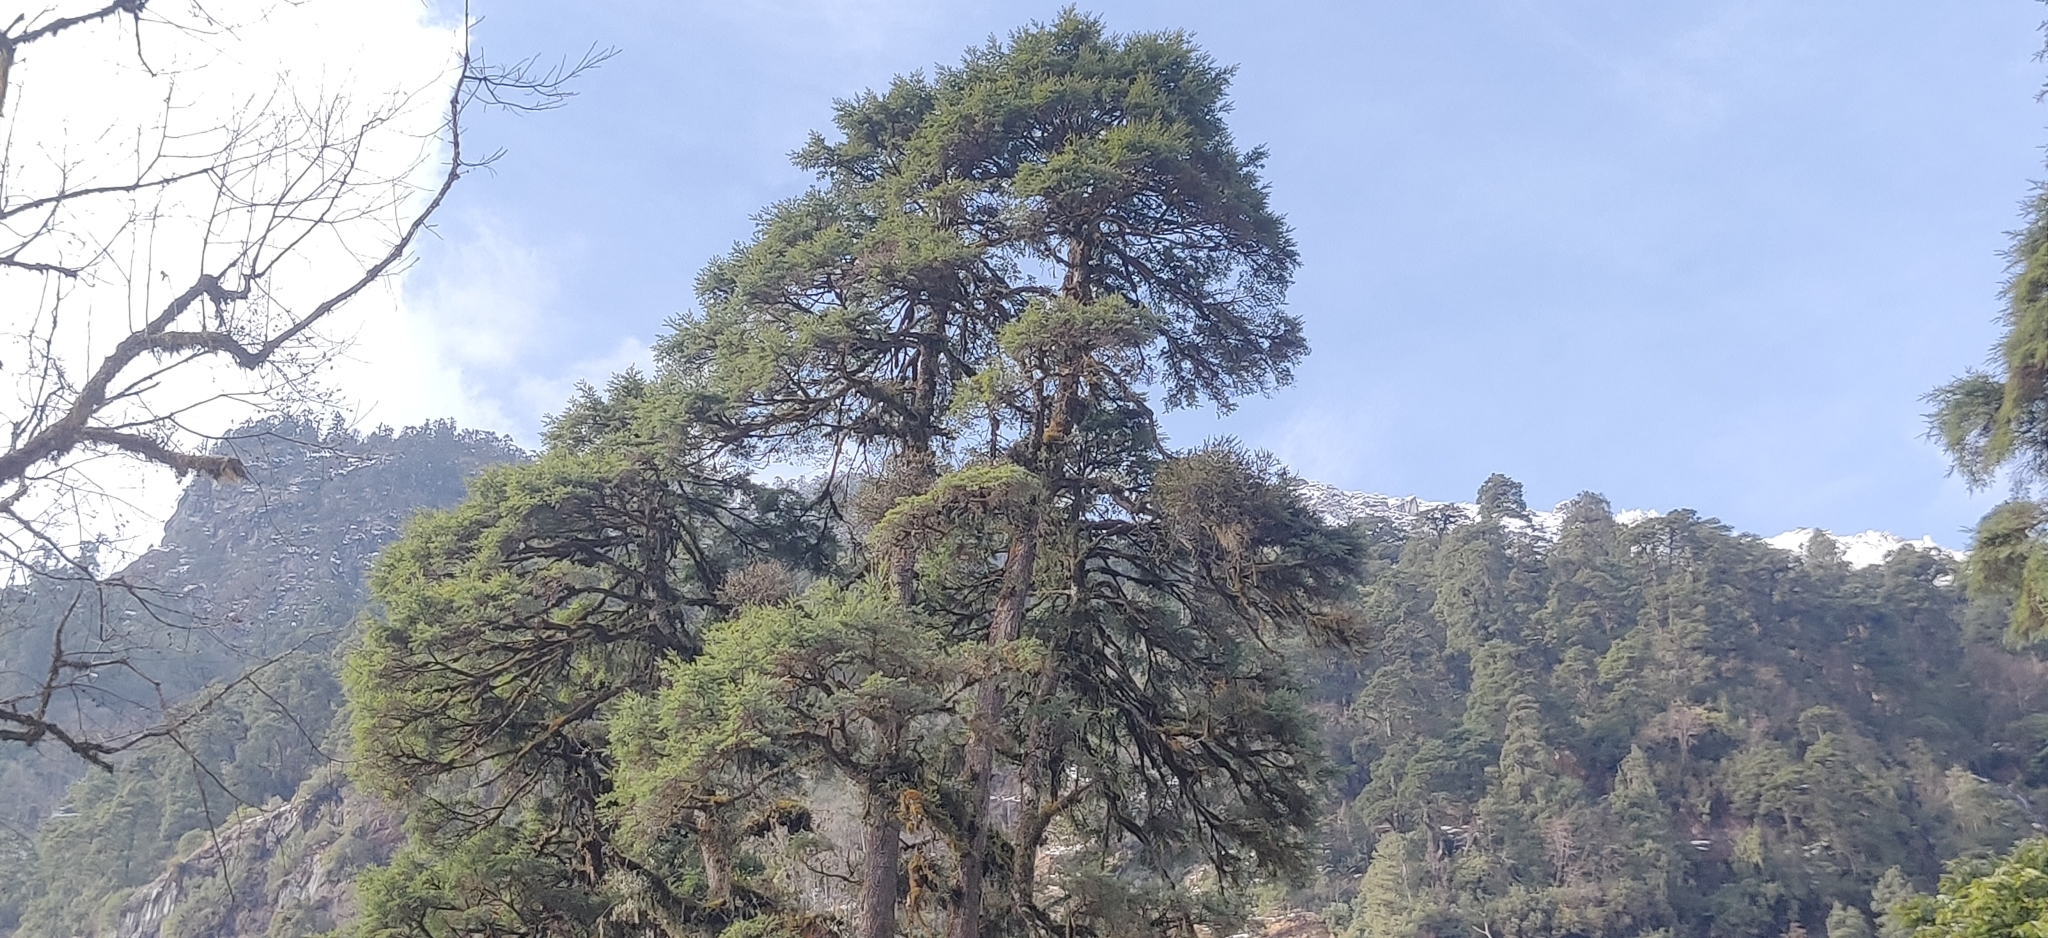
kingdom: Plantae
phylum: Tracheophyta
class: Pinopsida
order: Pinales
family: Pinaceae
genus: Tsuga
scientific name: Tsuga dumosa
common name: Himalayan hemlock
